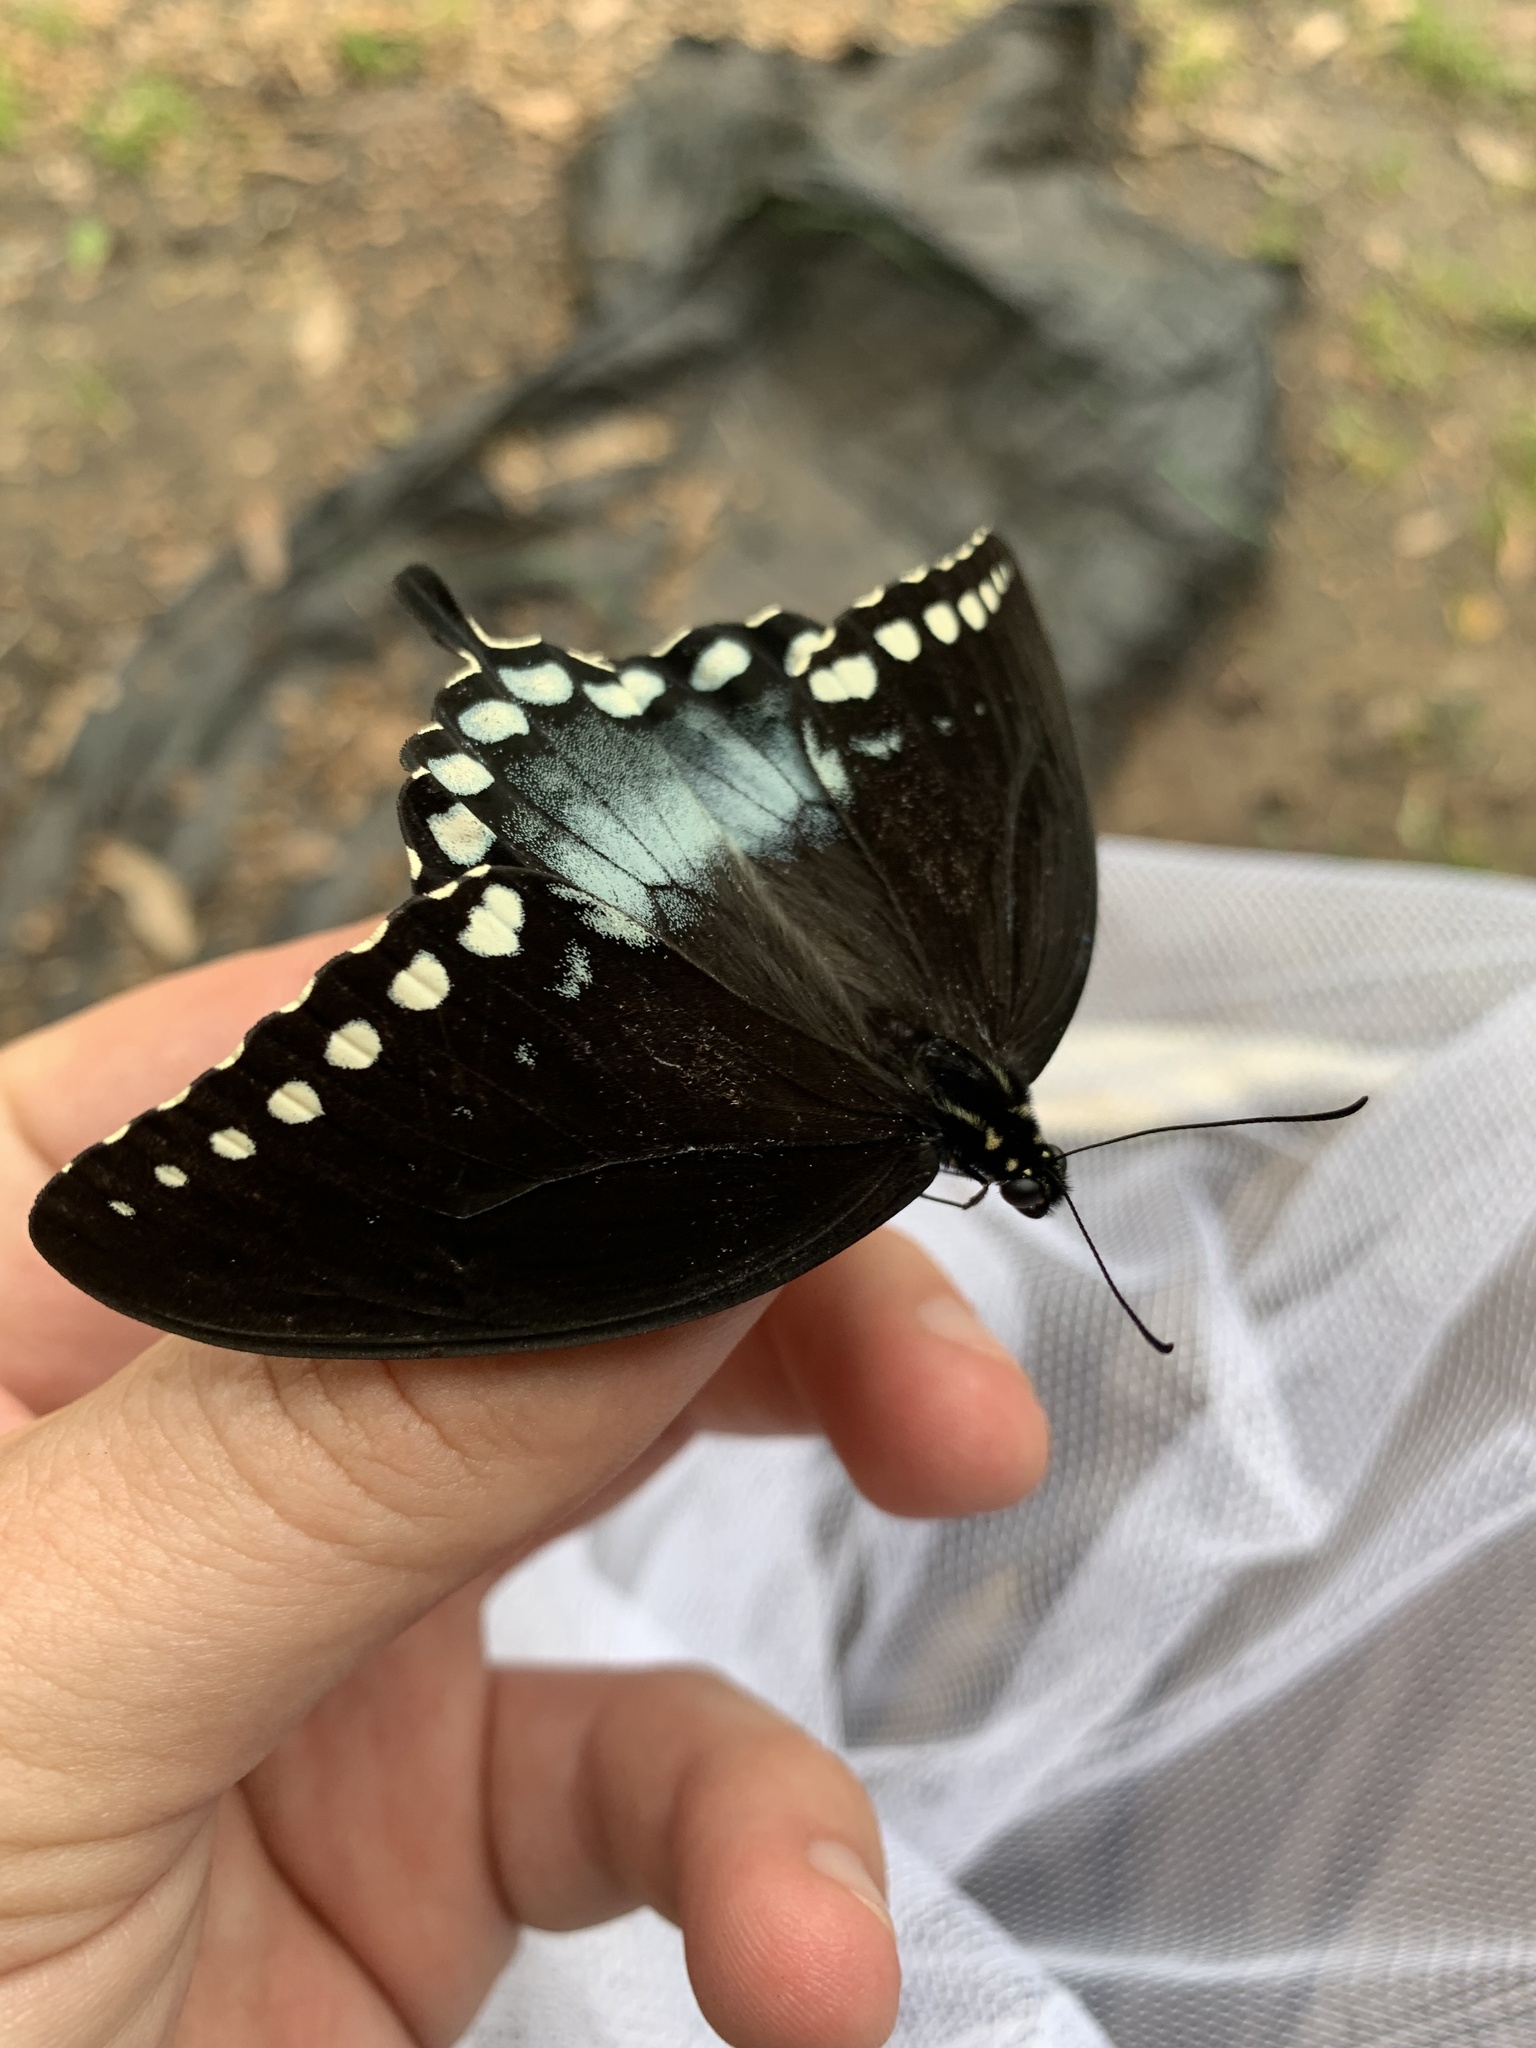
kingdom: Animalia
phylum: Arthropoda
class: Insecta
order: Lepidoptera
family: Papilionidae
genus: Papilio
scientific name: Papilio troilus
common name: Spicebush swallowtail
